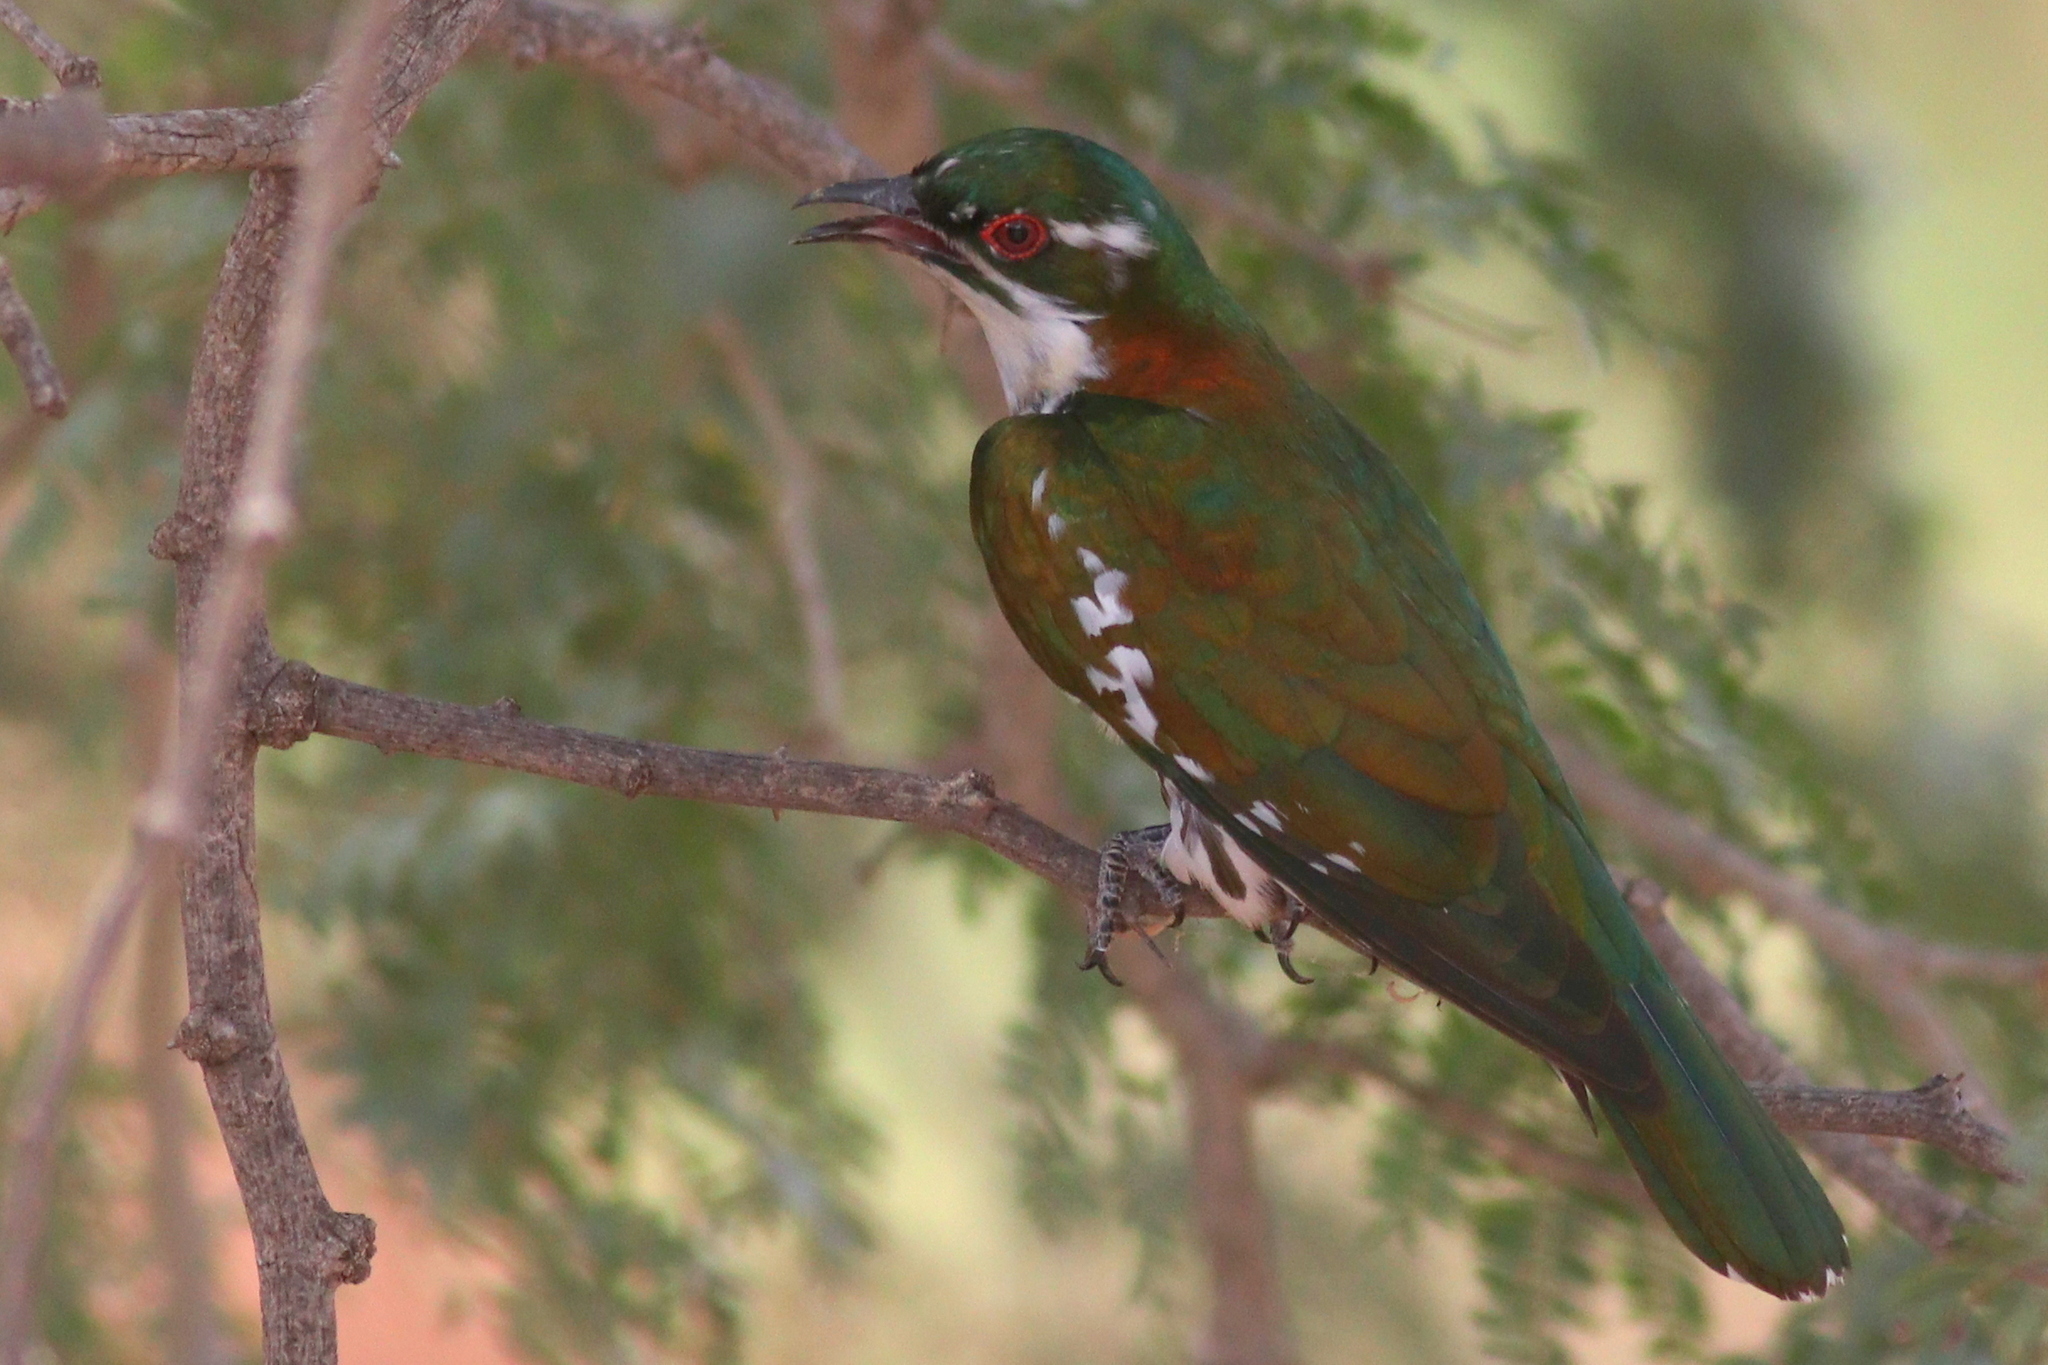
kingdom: Animalia
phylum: Chordata
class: Aves
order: Cuculiformes
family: Cuculidae
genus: Chrysococcyx
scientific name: Chrysococcyx caprius
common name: Diederik cuckoo
